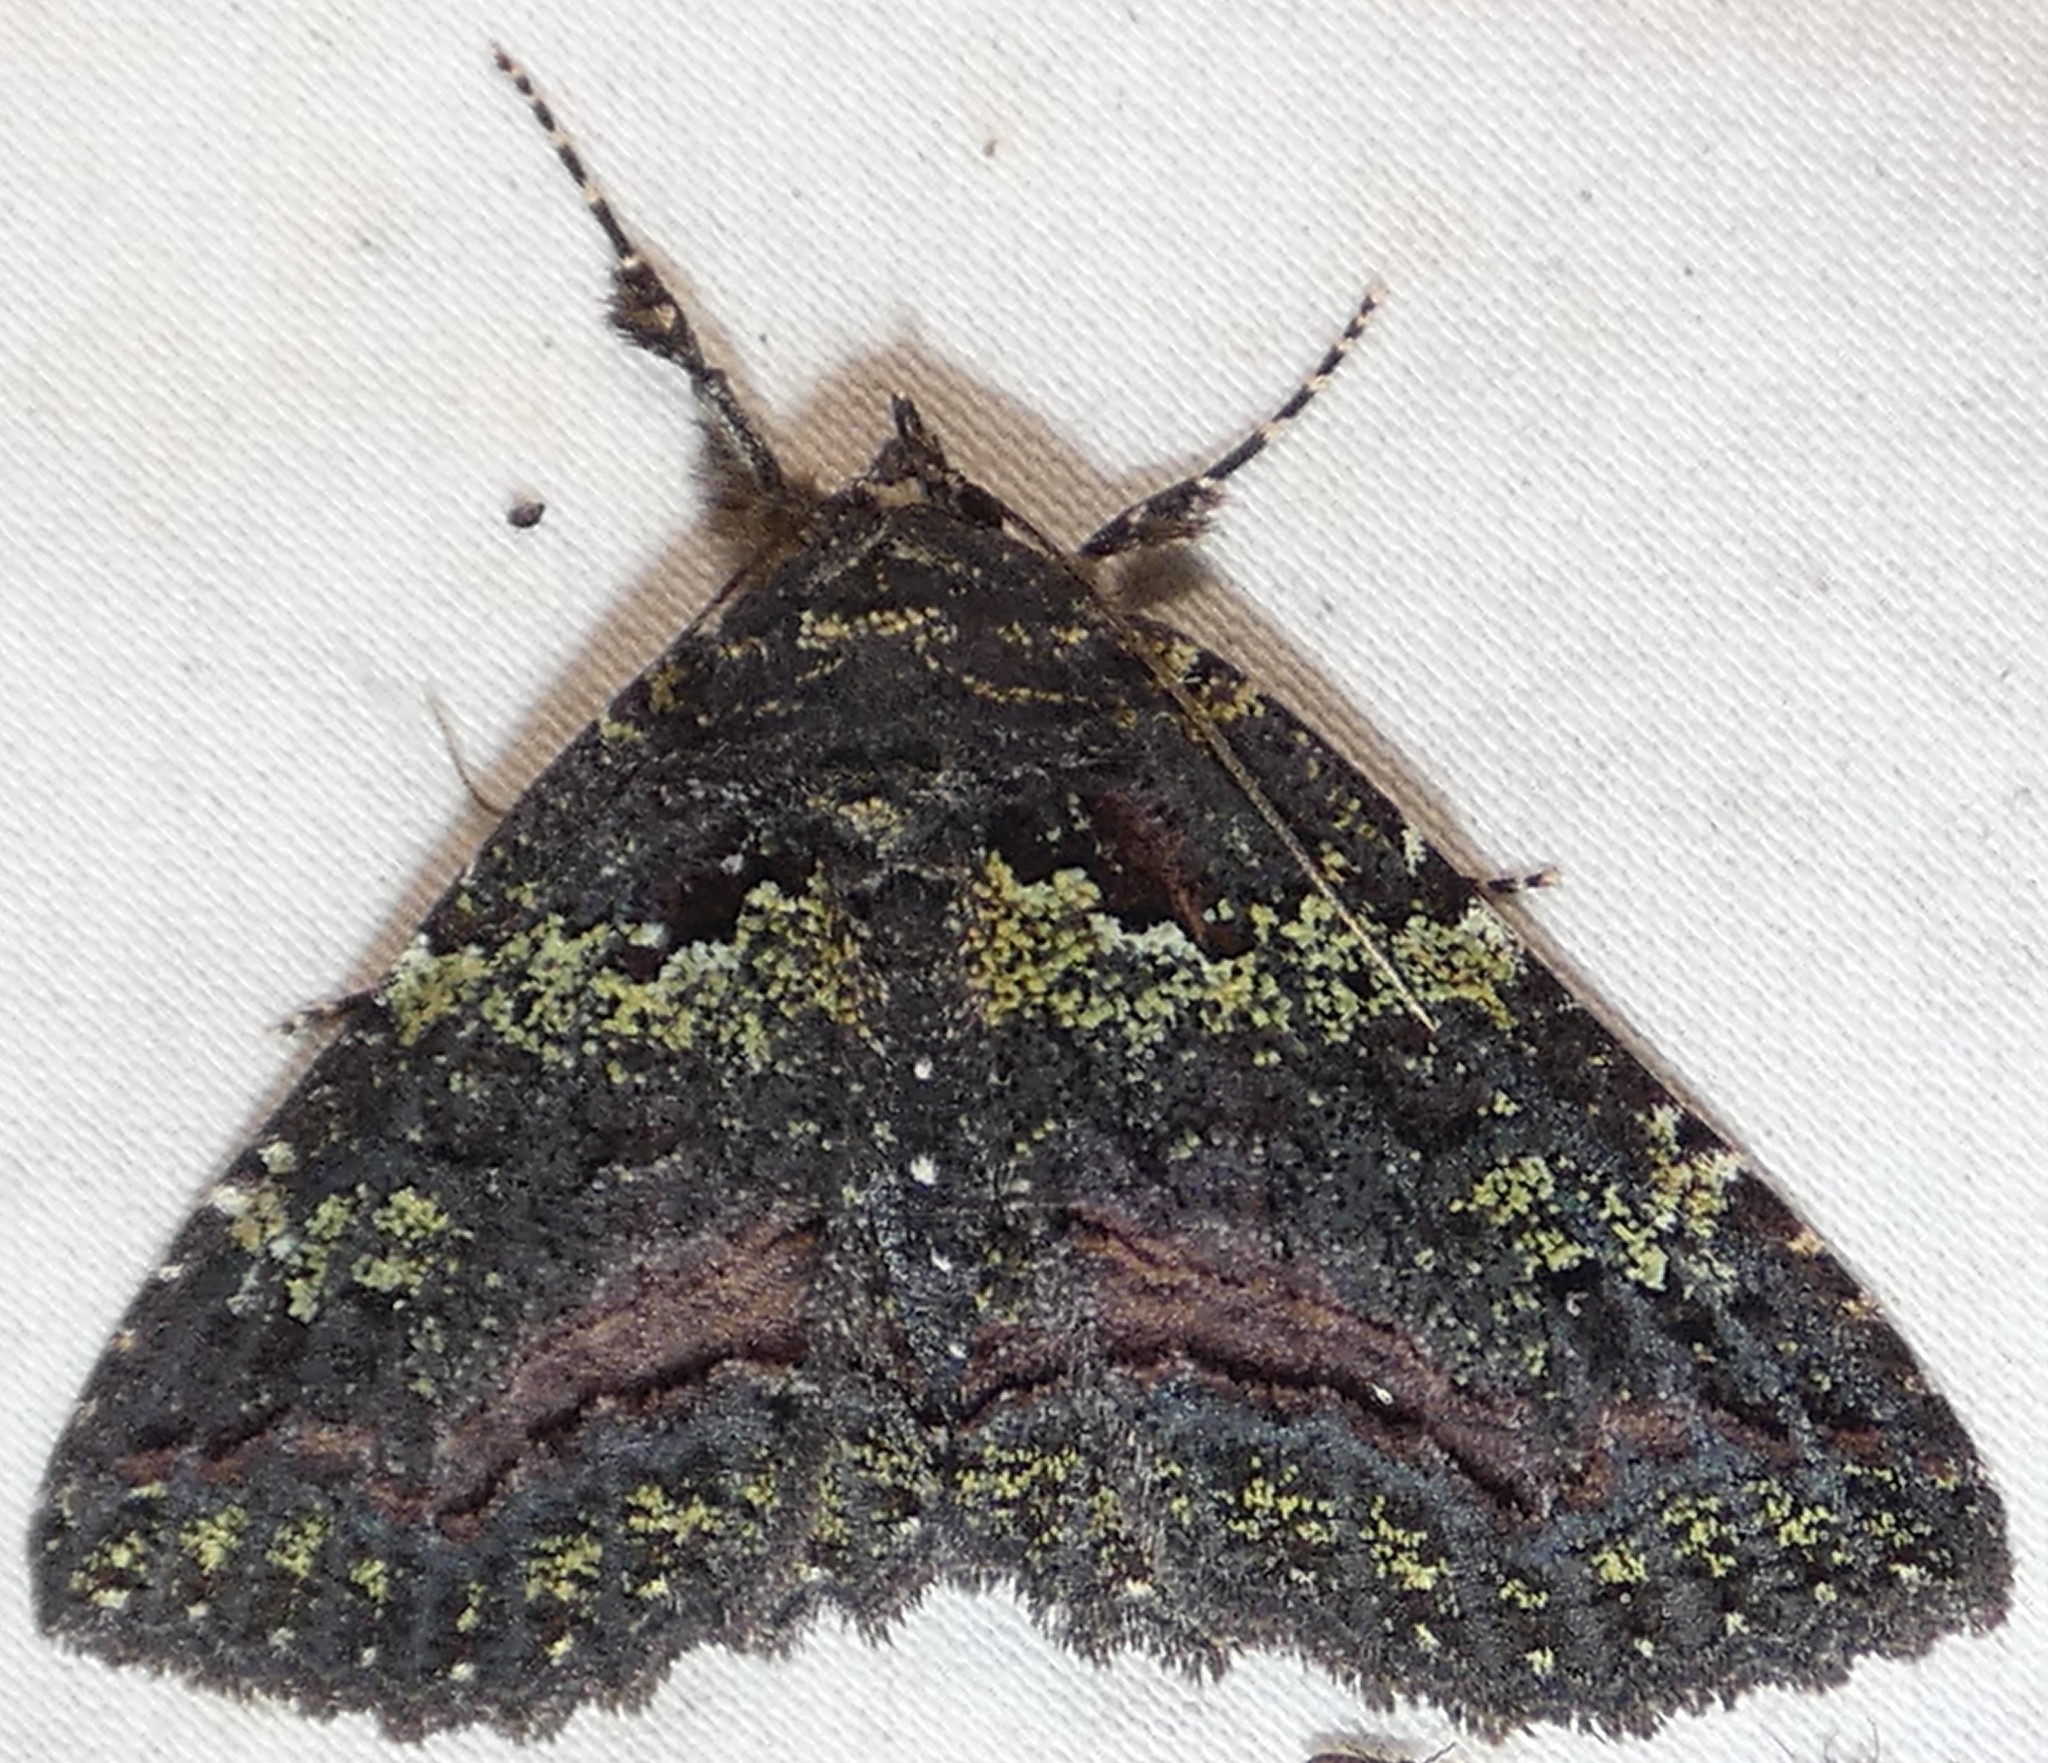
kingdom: Animalia
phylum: Arthropoda
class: Insecta
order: Lepidoptera
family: Erebidae
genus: Zale
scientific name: Zale aeruginosa
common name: Green-dusted zale moth
